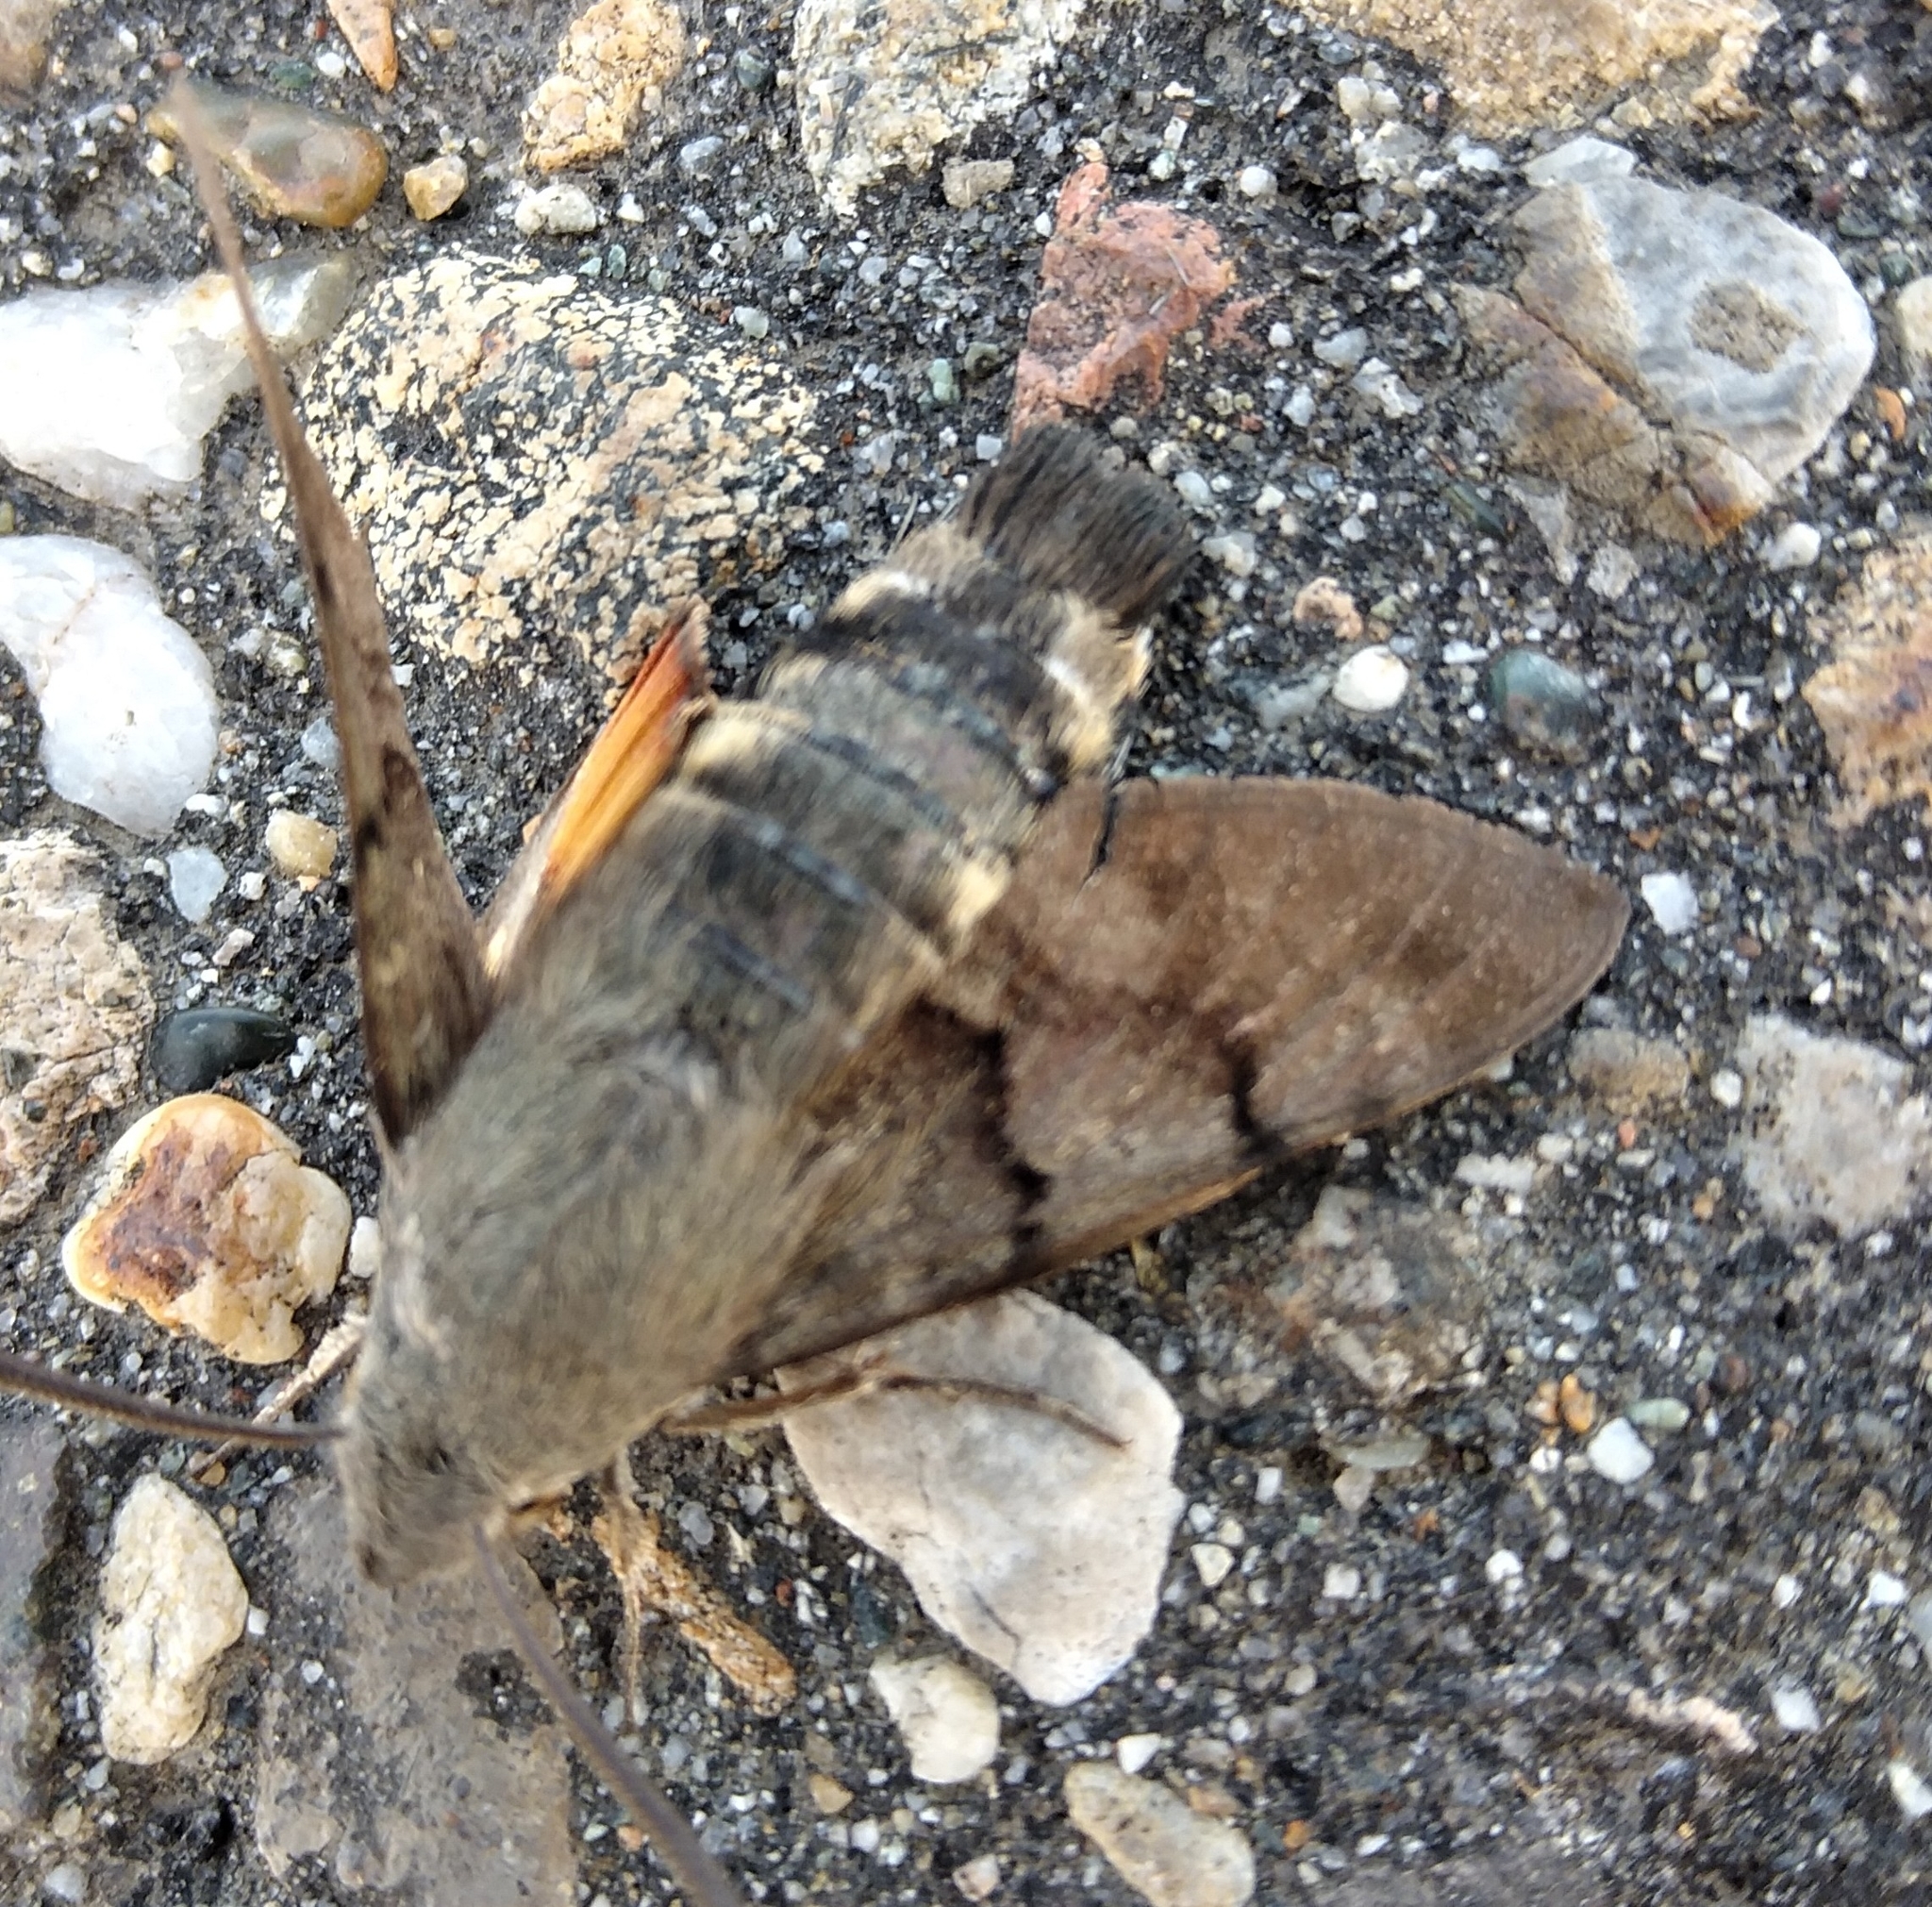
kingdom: Animalia
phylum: Arthropoda
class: Insecta
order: Lepidoptera
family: Sphingidae
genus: Macroglossum
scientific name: Macroglossum stellatarum
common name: Humming-bird hawk-moth
